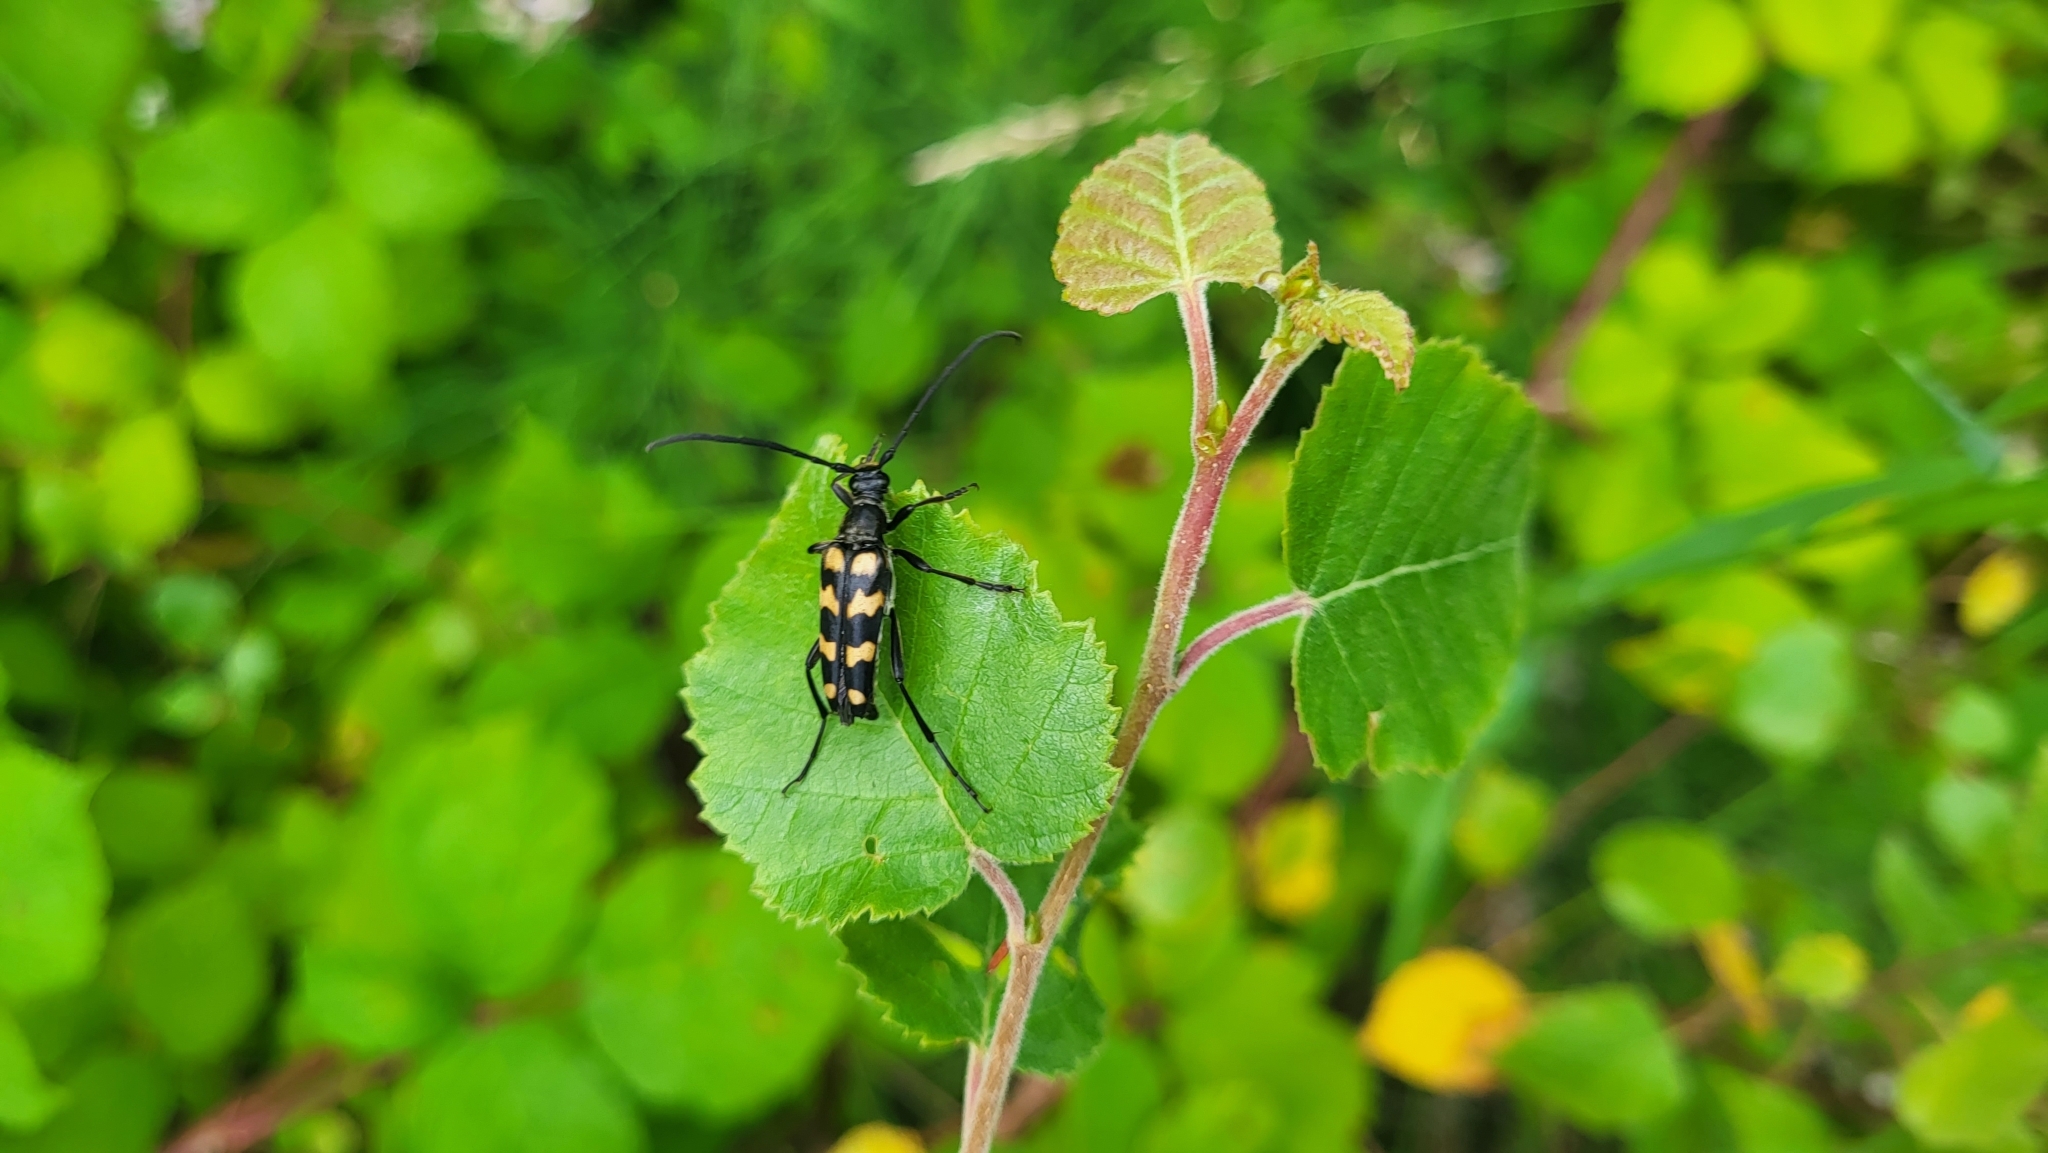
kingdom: Animalia
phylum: Arthropoda
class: Insecta
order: Coleoptera
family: Cerambycidae
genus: Leptura
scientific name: Leptura quadrifasciata
